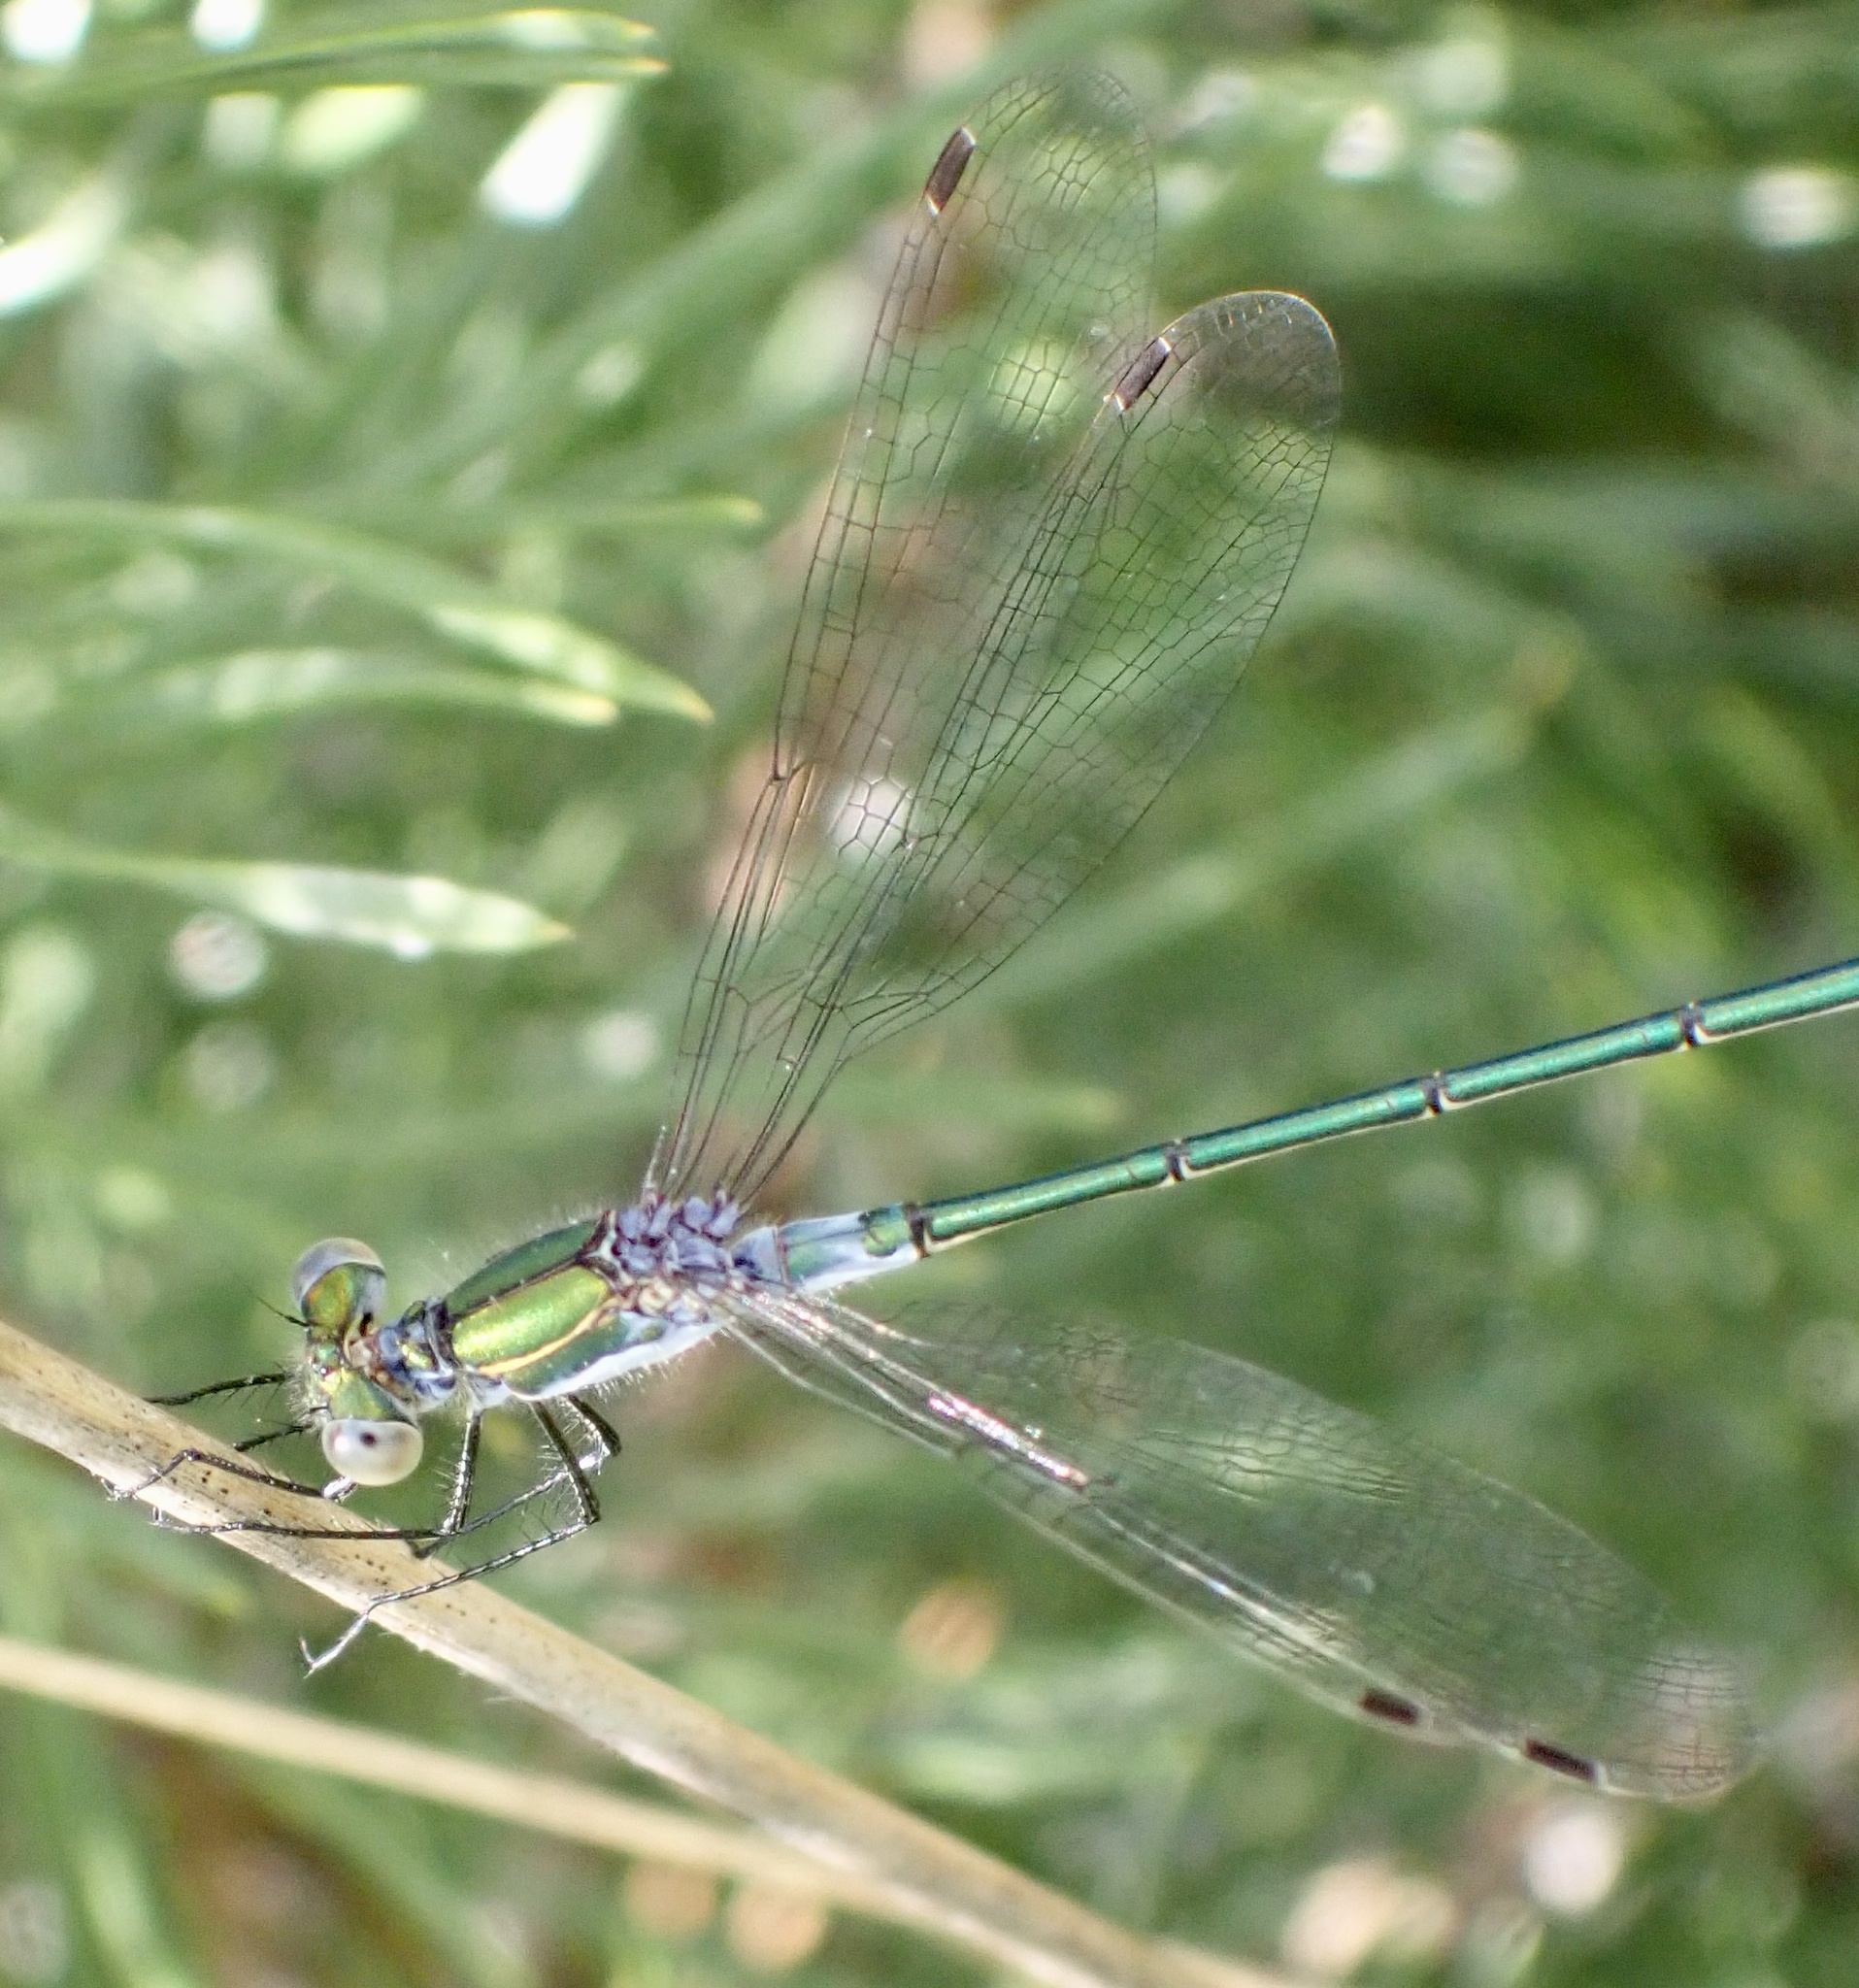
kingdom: Animalia
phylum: Arthropoda
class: Insecta
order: Odonata
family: Lestidae
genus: Lestes
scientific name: Lestes sponsa
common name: Common spreadwing
